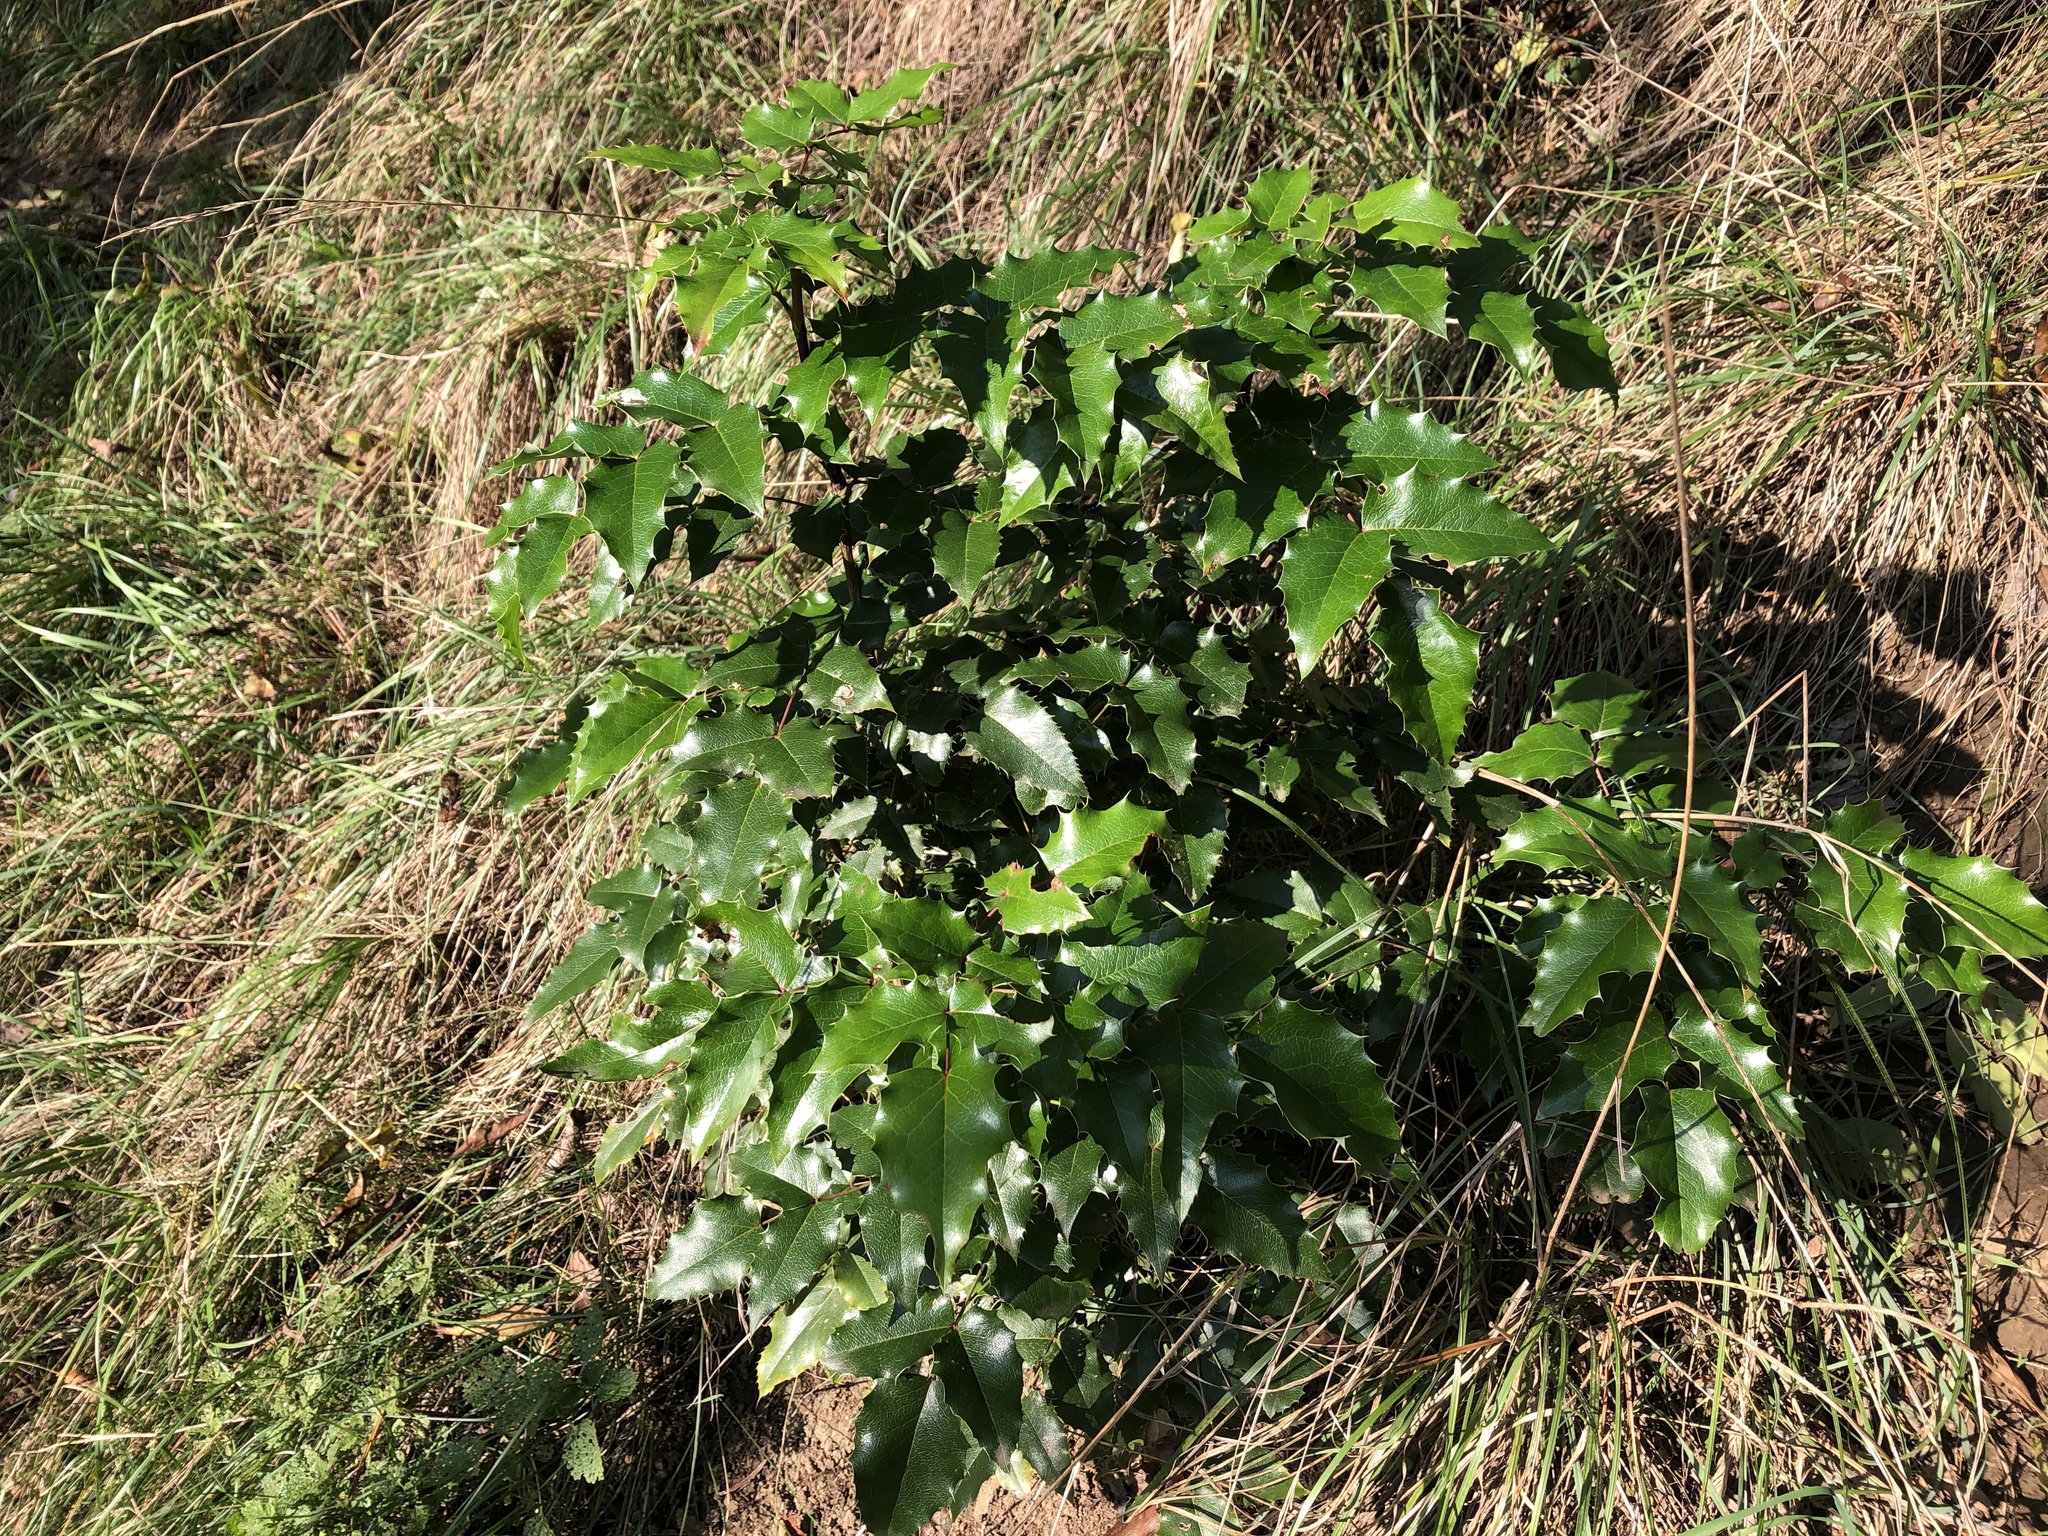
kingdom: Plantae
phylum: Tracheophyta
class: Magnoliopsida
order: Ranunculales
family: Berberidaceae
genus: Mahonia
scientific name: Mahonia aquifolium
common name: Oregon-grape
